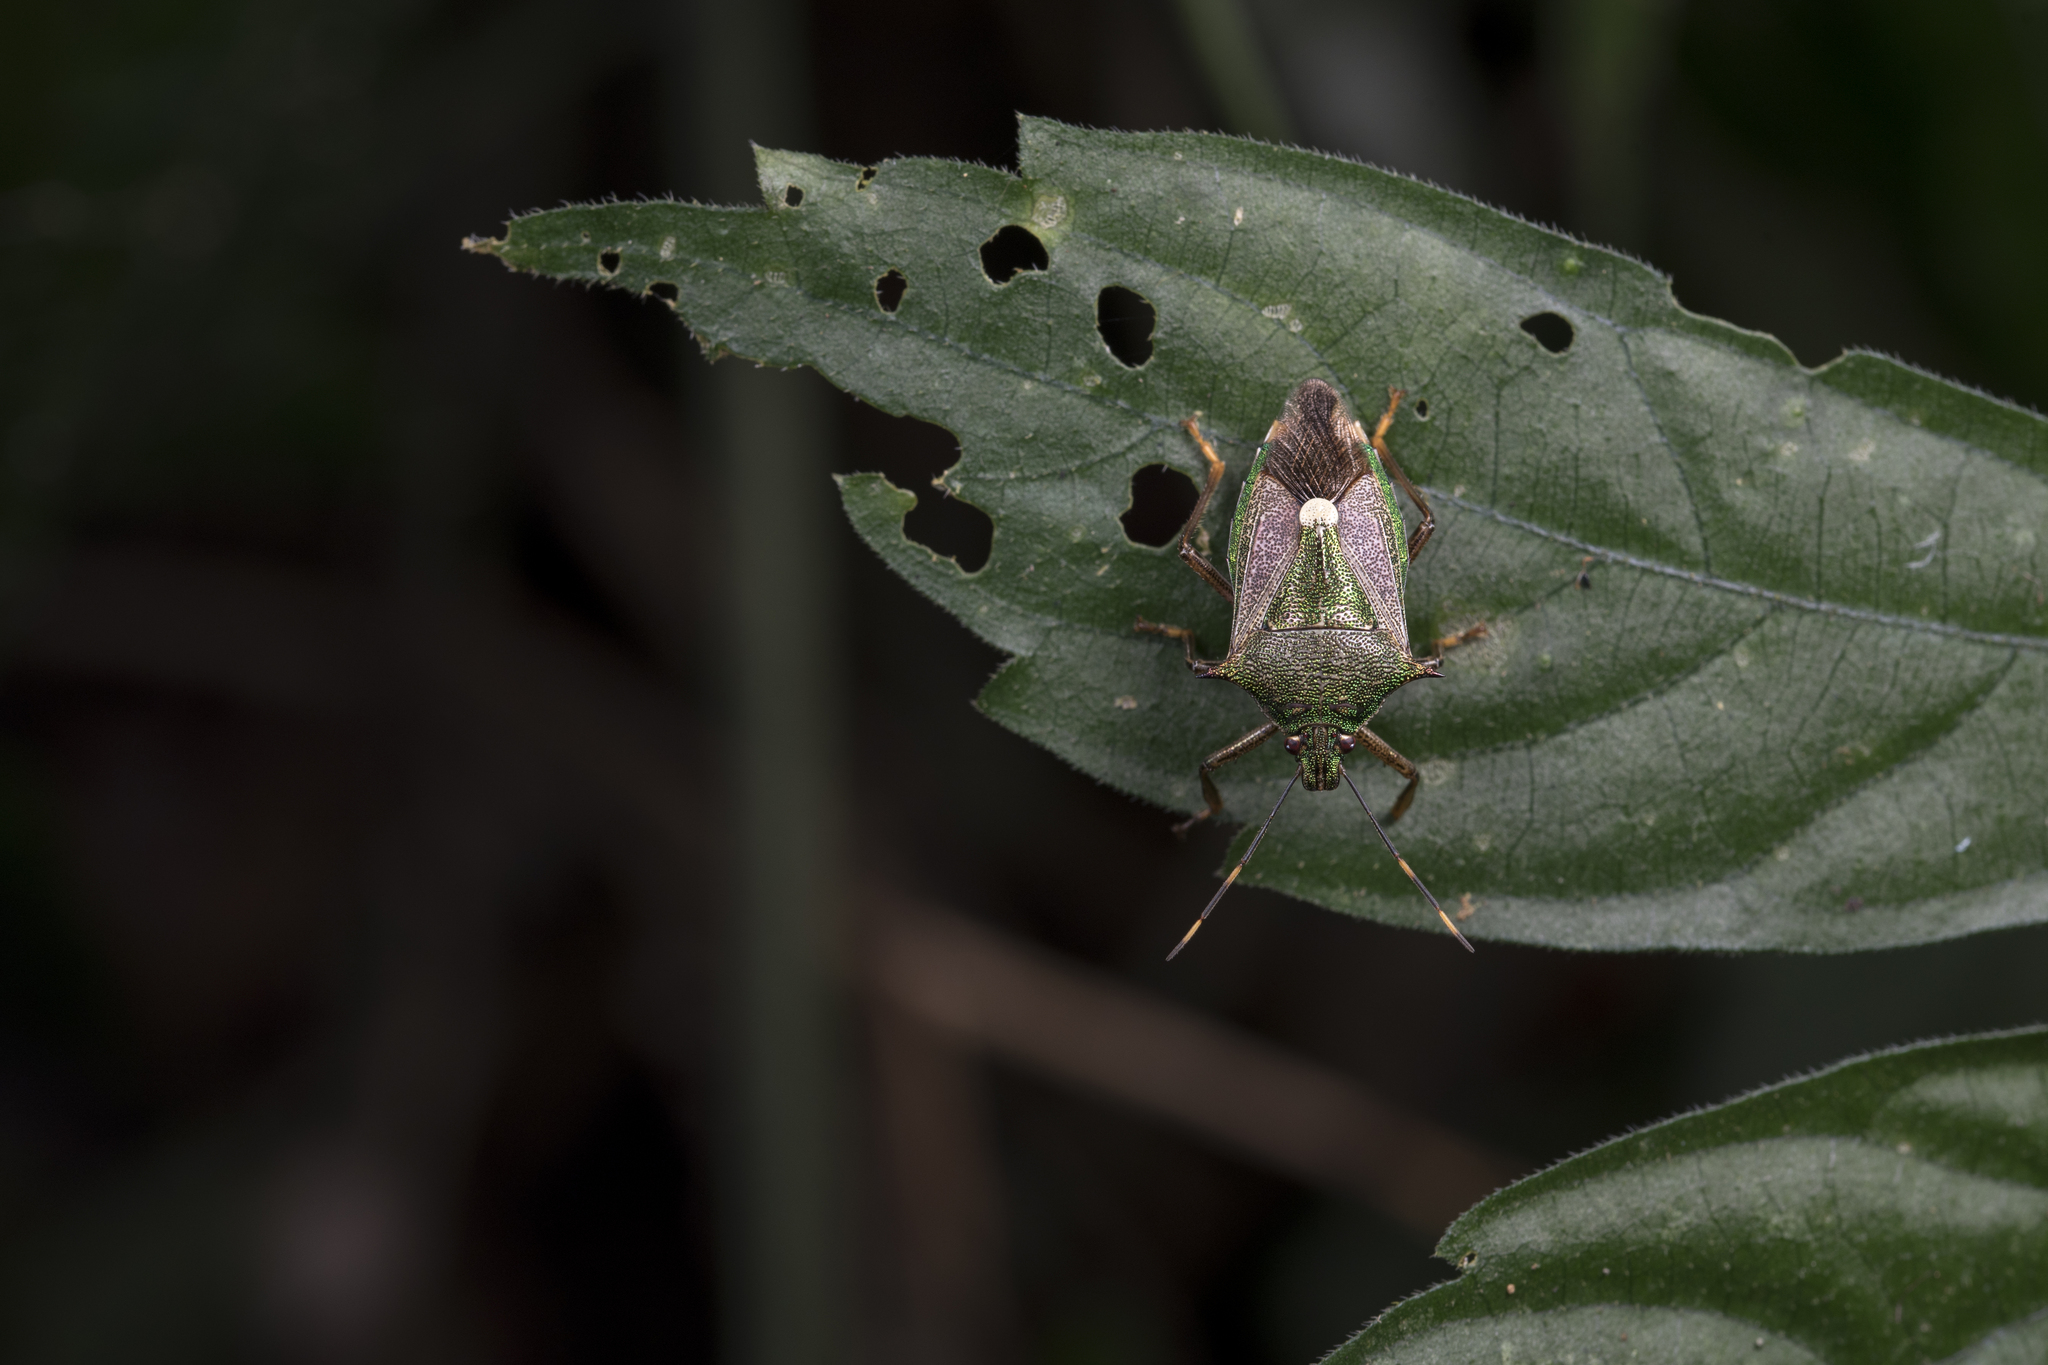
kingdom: Animalia
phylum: Arthropoda
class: Insecta
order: Hemiptera
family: Pentatomidae
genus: Eocanthecona
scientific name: Eocanthecona formosa
